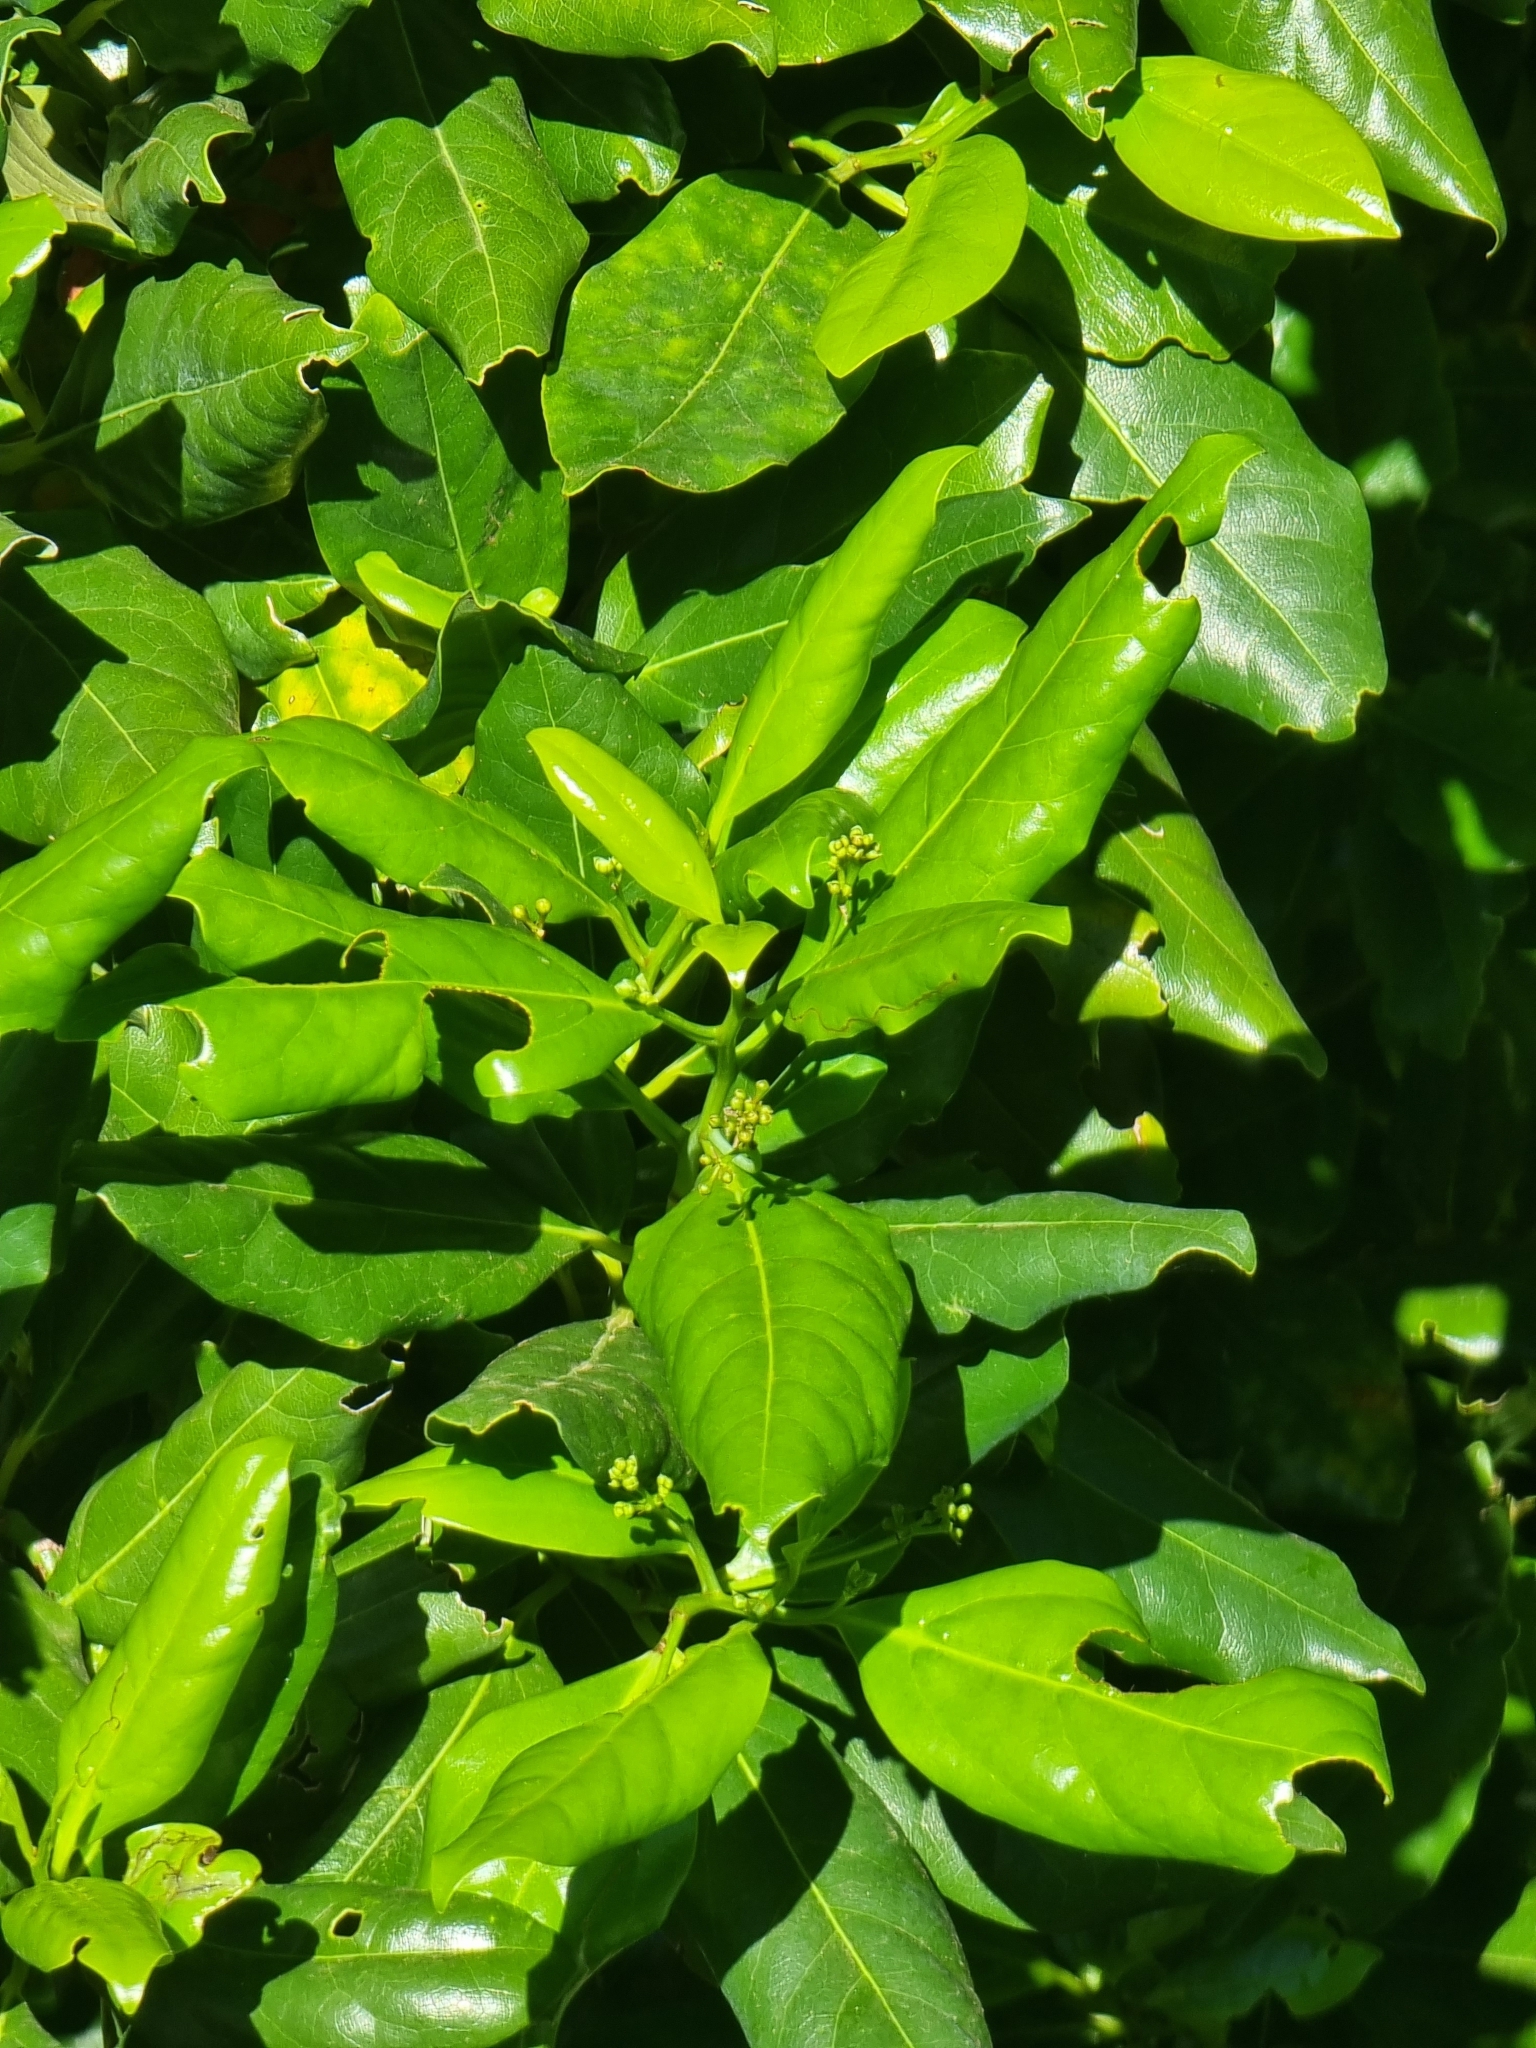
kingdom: Plantae
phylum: Tracheophyta
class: Magnoliopsida
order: Laurales
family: Lauraceae
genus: Mespilodaphne
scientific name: Mespilodaphne foetens
